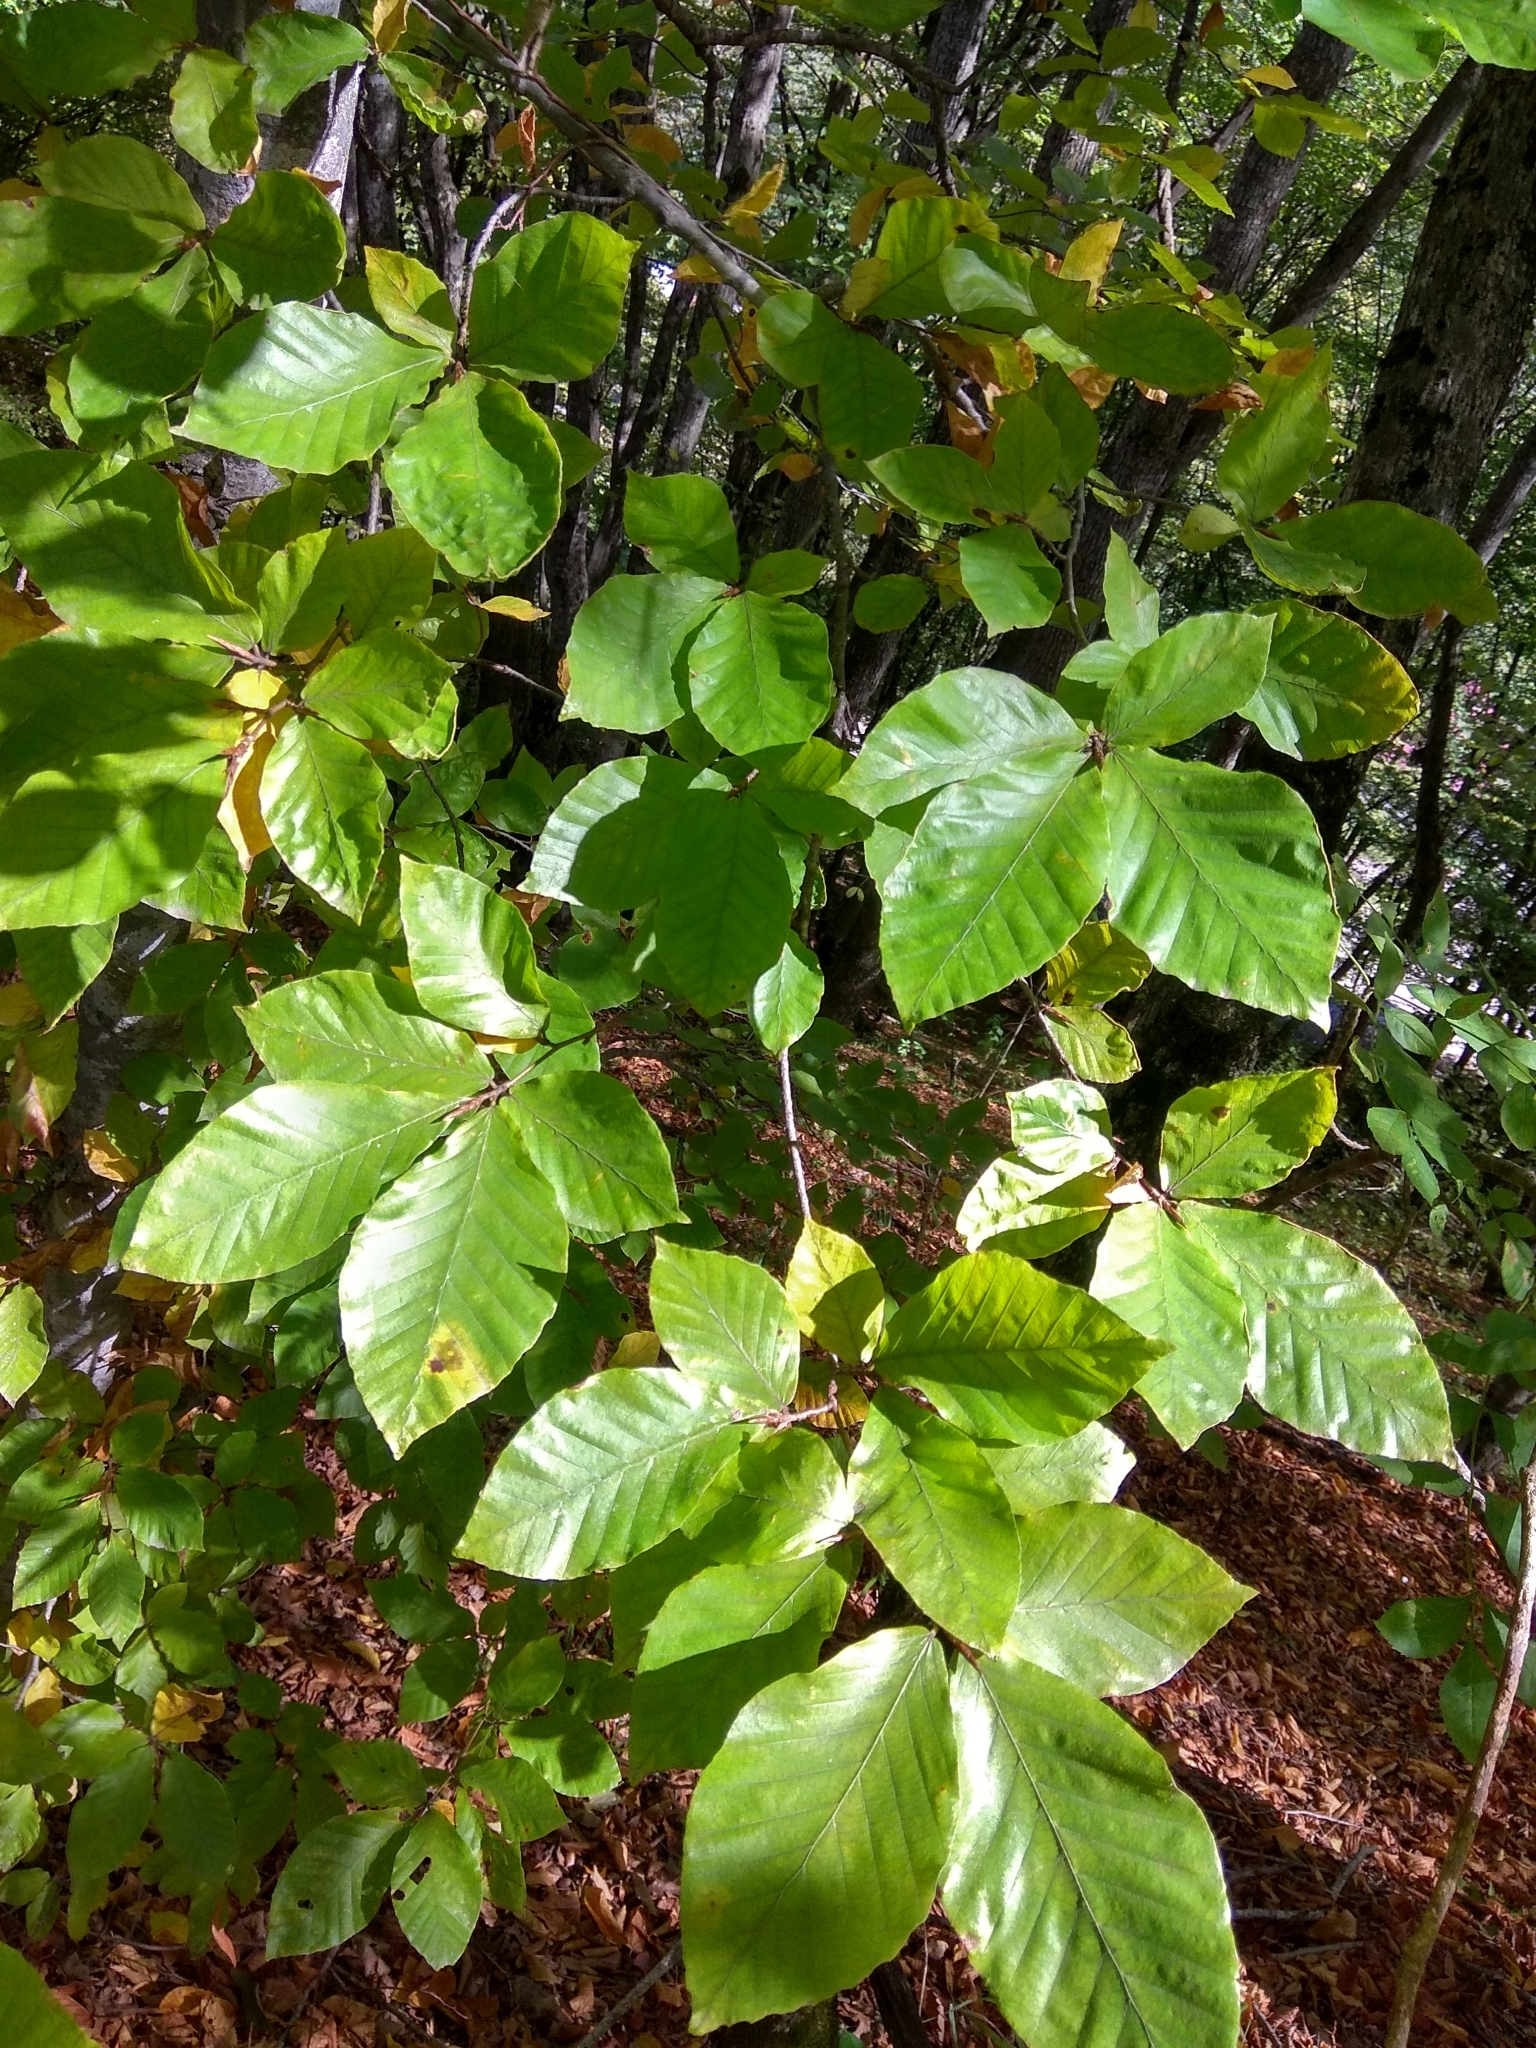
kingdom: Plantae
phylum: Tracheophyta
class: Magnoliopsida
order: Fagales
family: Fagaceae
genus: Fagus
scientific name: Fagus orientalis
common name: Oriental beech
